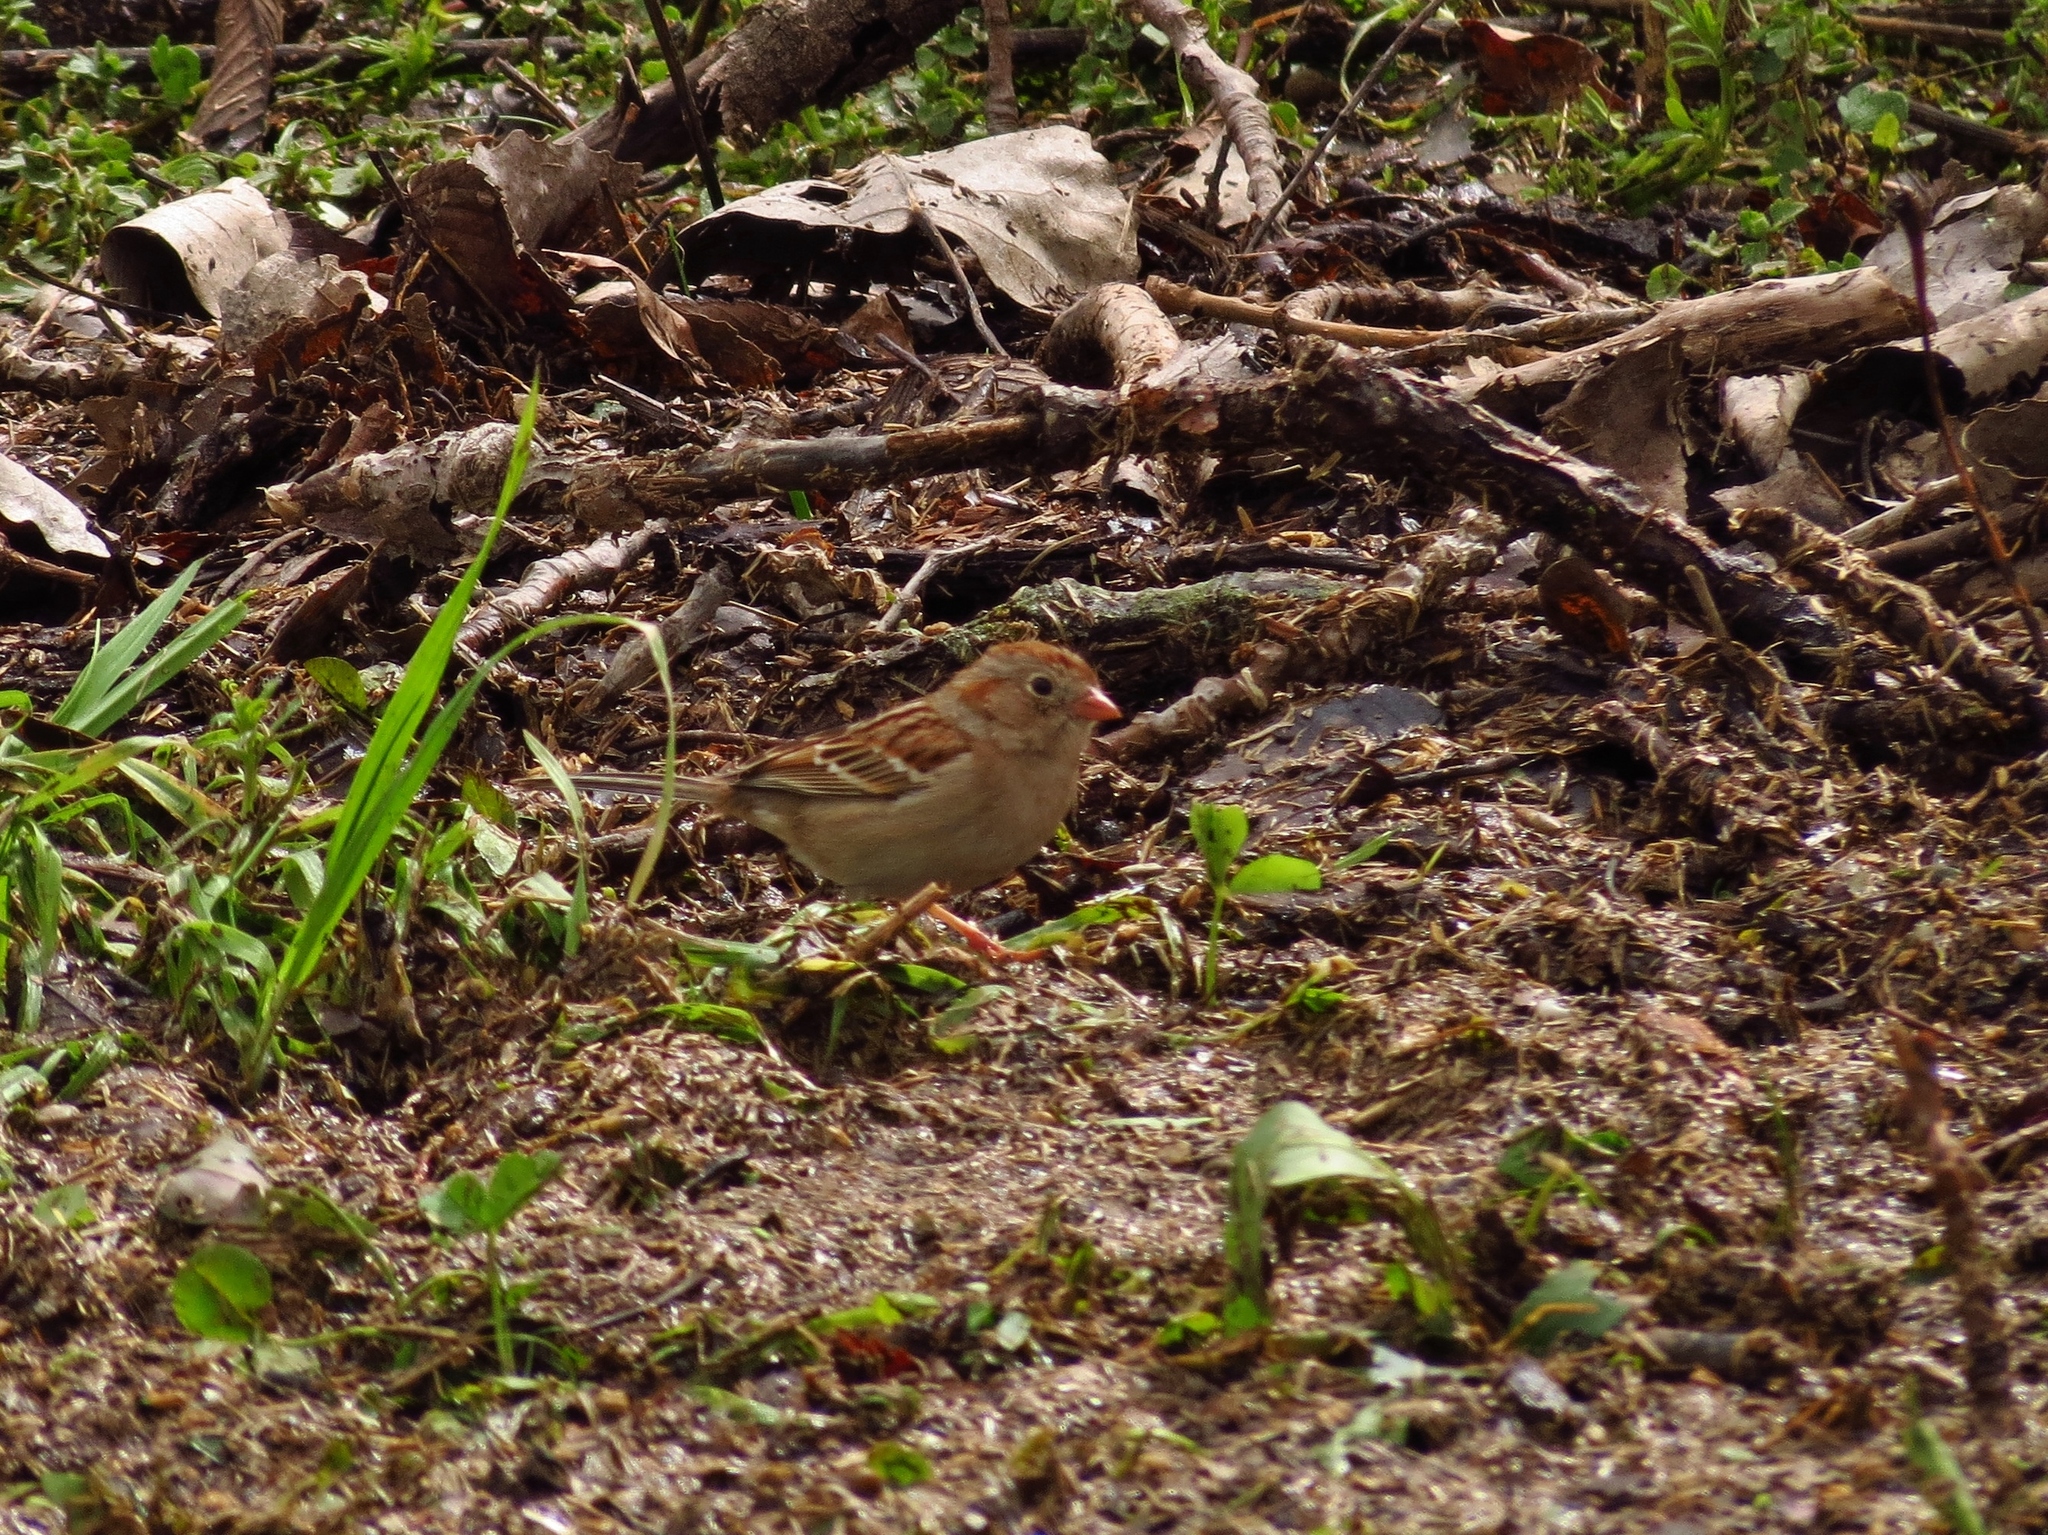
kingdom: Animalia
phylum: Chordata
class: Aves
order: Passeriformes
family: Passerellidae
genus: Spizella
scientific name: Spizella pusilla
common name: Field sparrow
